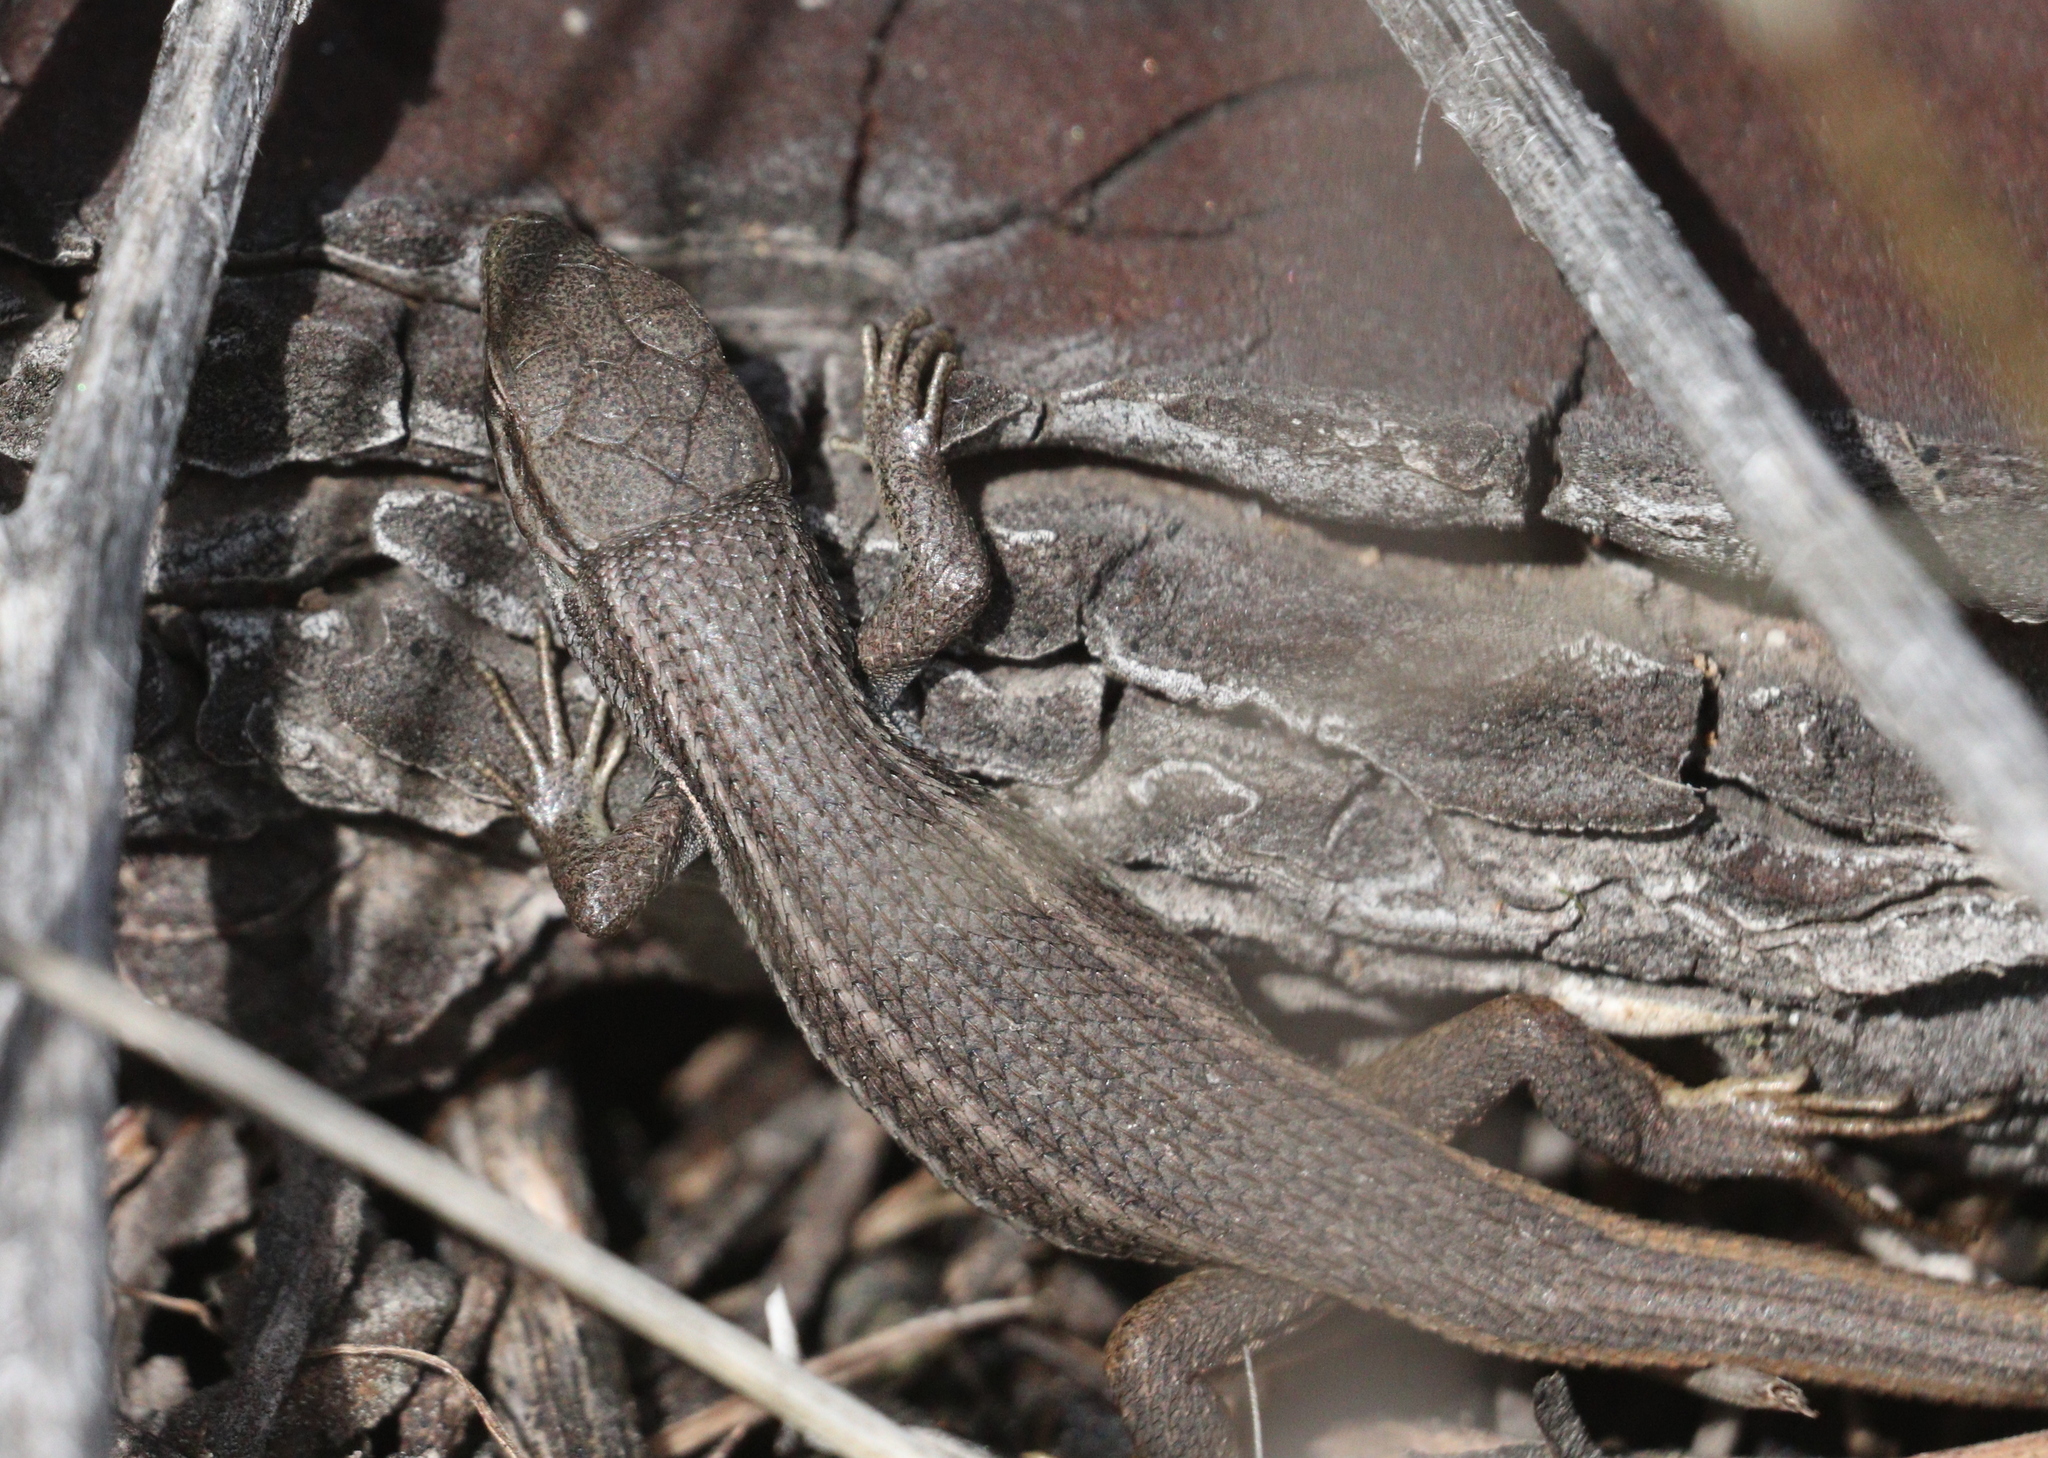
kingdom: Animalia
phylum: Chordata
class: Squamata
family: Lacertidae
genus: Psammodromus
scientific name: Psammodromus algirus
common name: Algerian psammodromus
